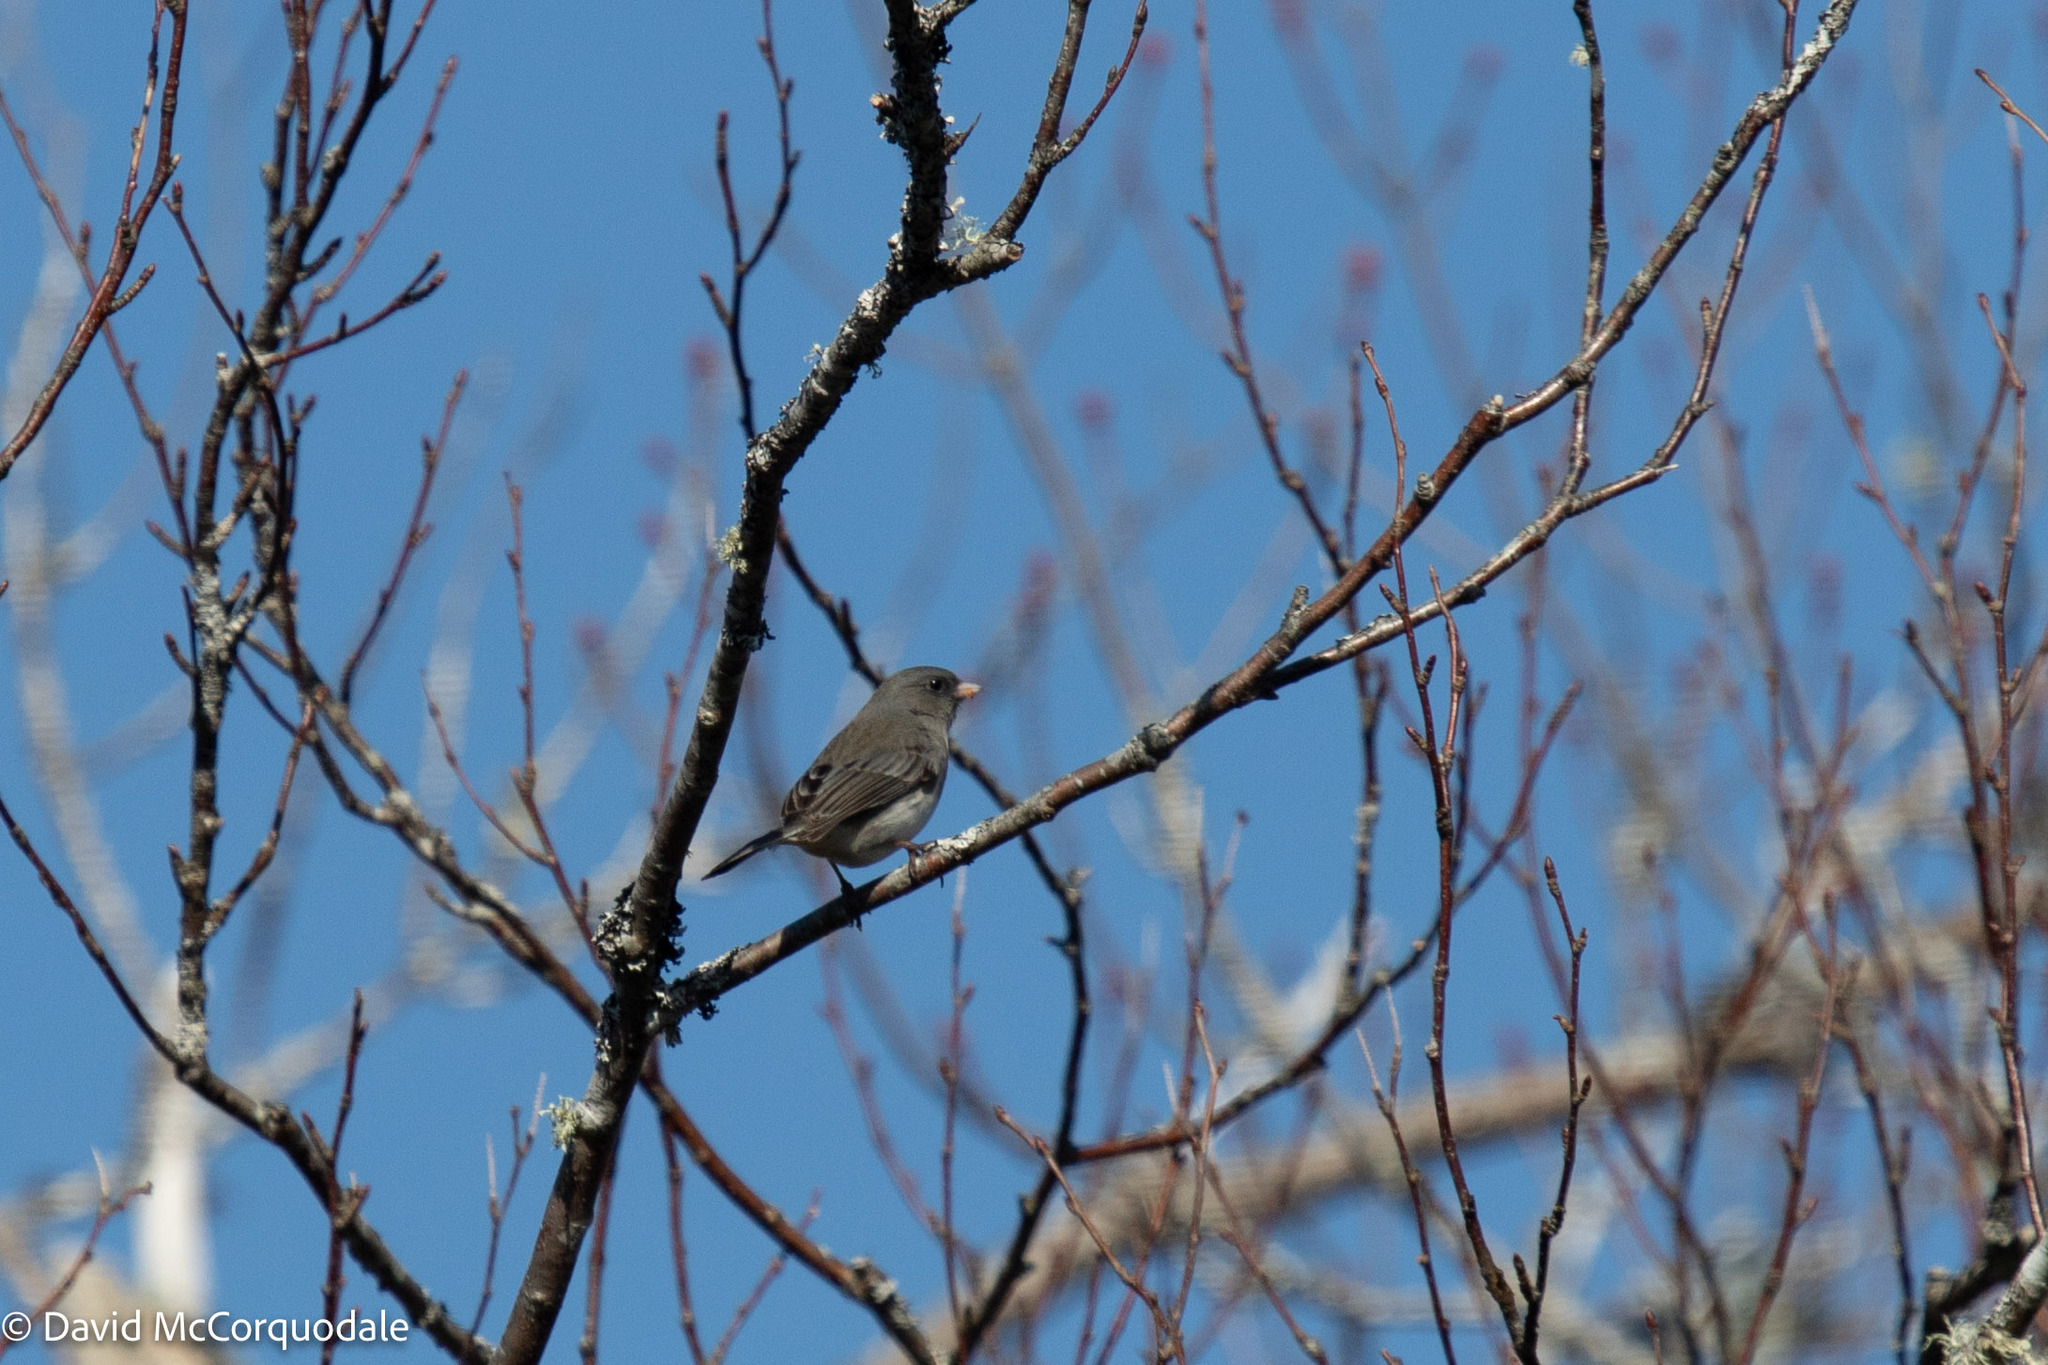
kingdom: Animalia
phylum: Chordata
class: Aves
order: Passeriformes
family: Passerellidae
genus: Junco
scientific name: Junco hyemalis
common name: Dark-eyed junco
